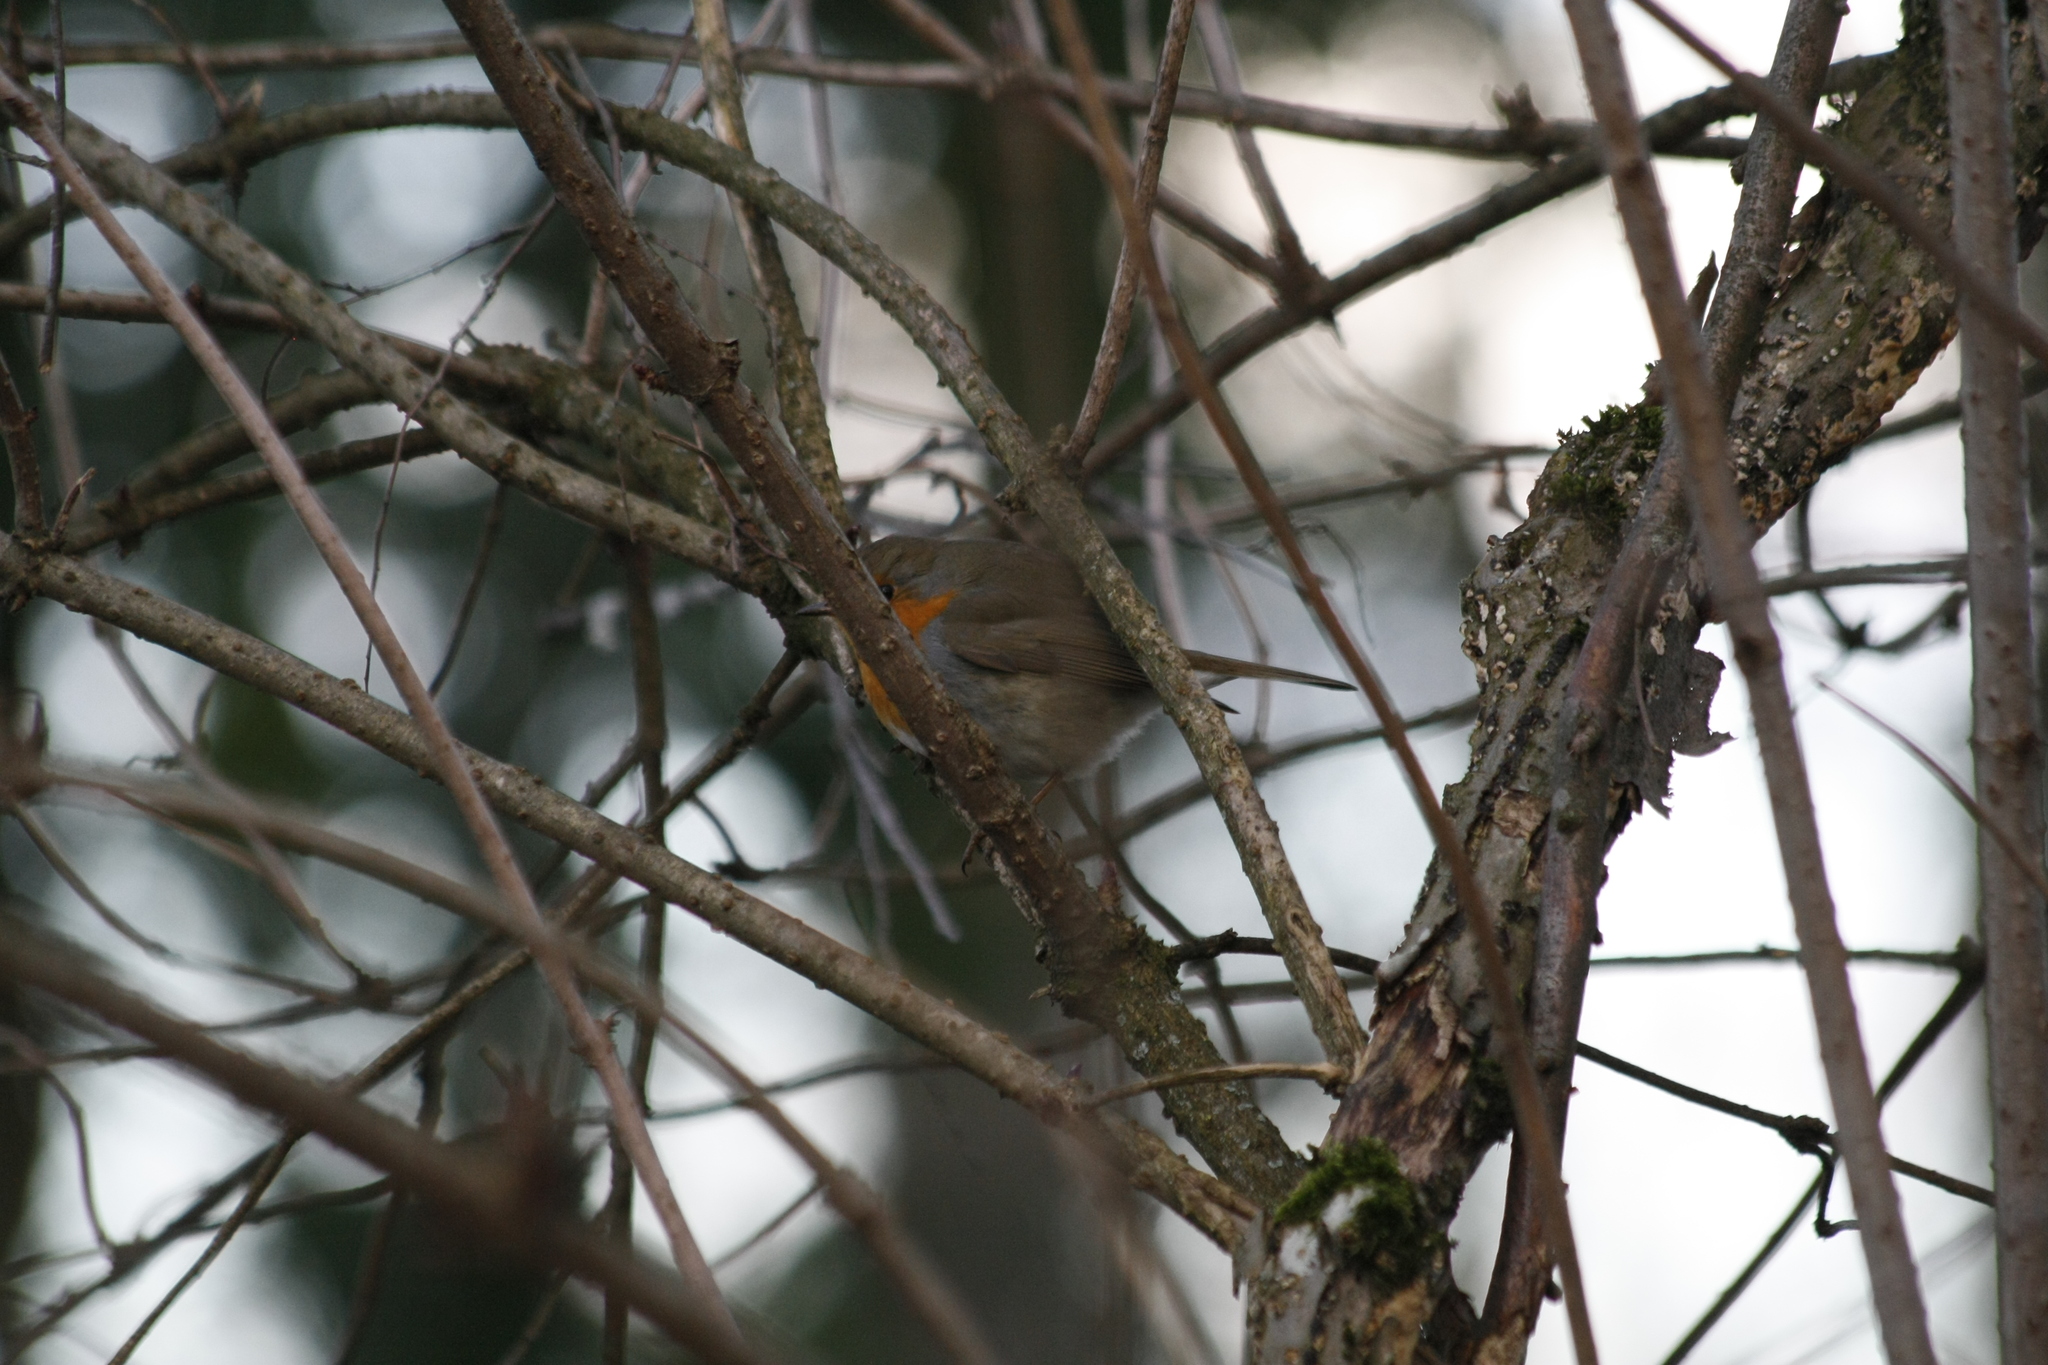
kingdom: Animalia
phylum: Chordata
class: Aves
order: Passeriformes
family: Muscicapidae
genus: Erithacus
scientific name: Erithacus rubecula
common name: European robin
